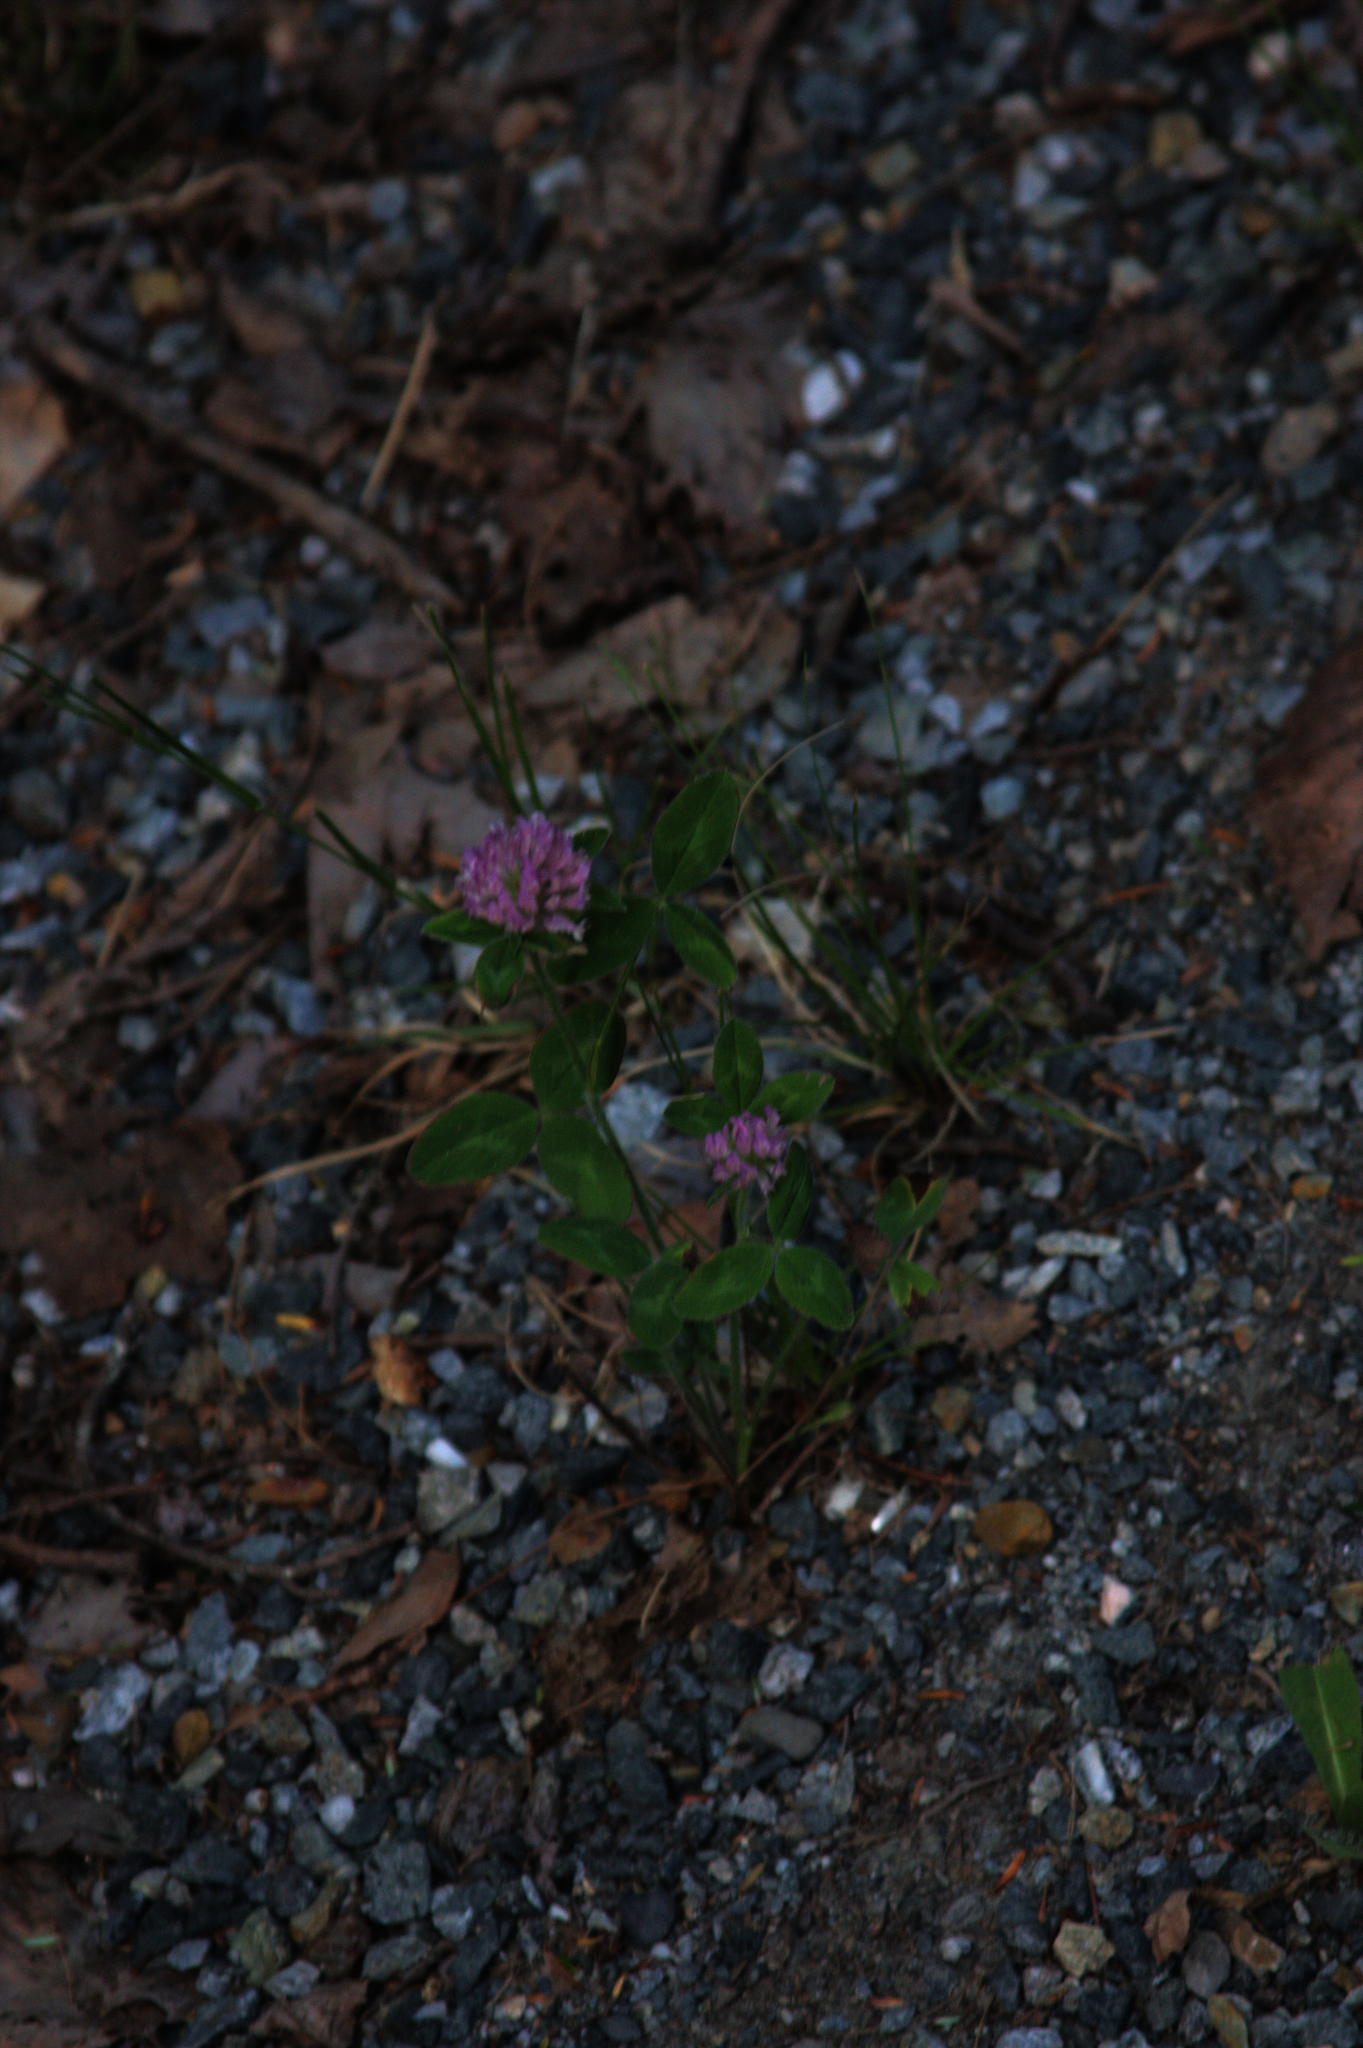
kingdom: Plantae
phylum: Tracheophyta
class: Magnoliopsida
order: Fabales
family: Fabaceae
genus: Trifolium
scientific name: Trifolium pratense
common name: Red clover
